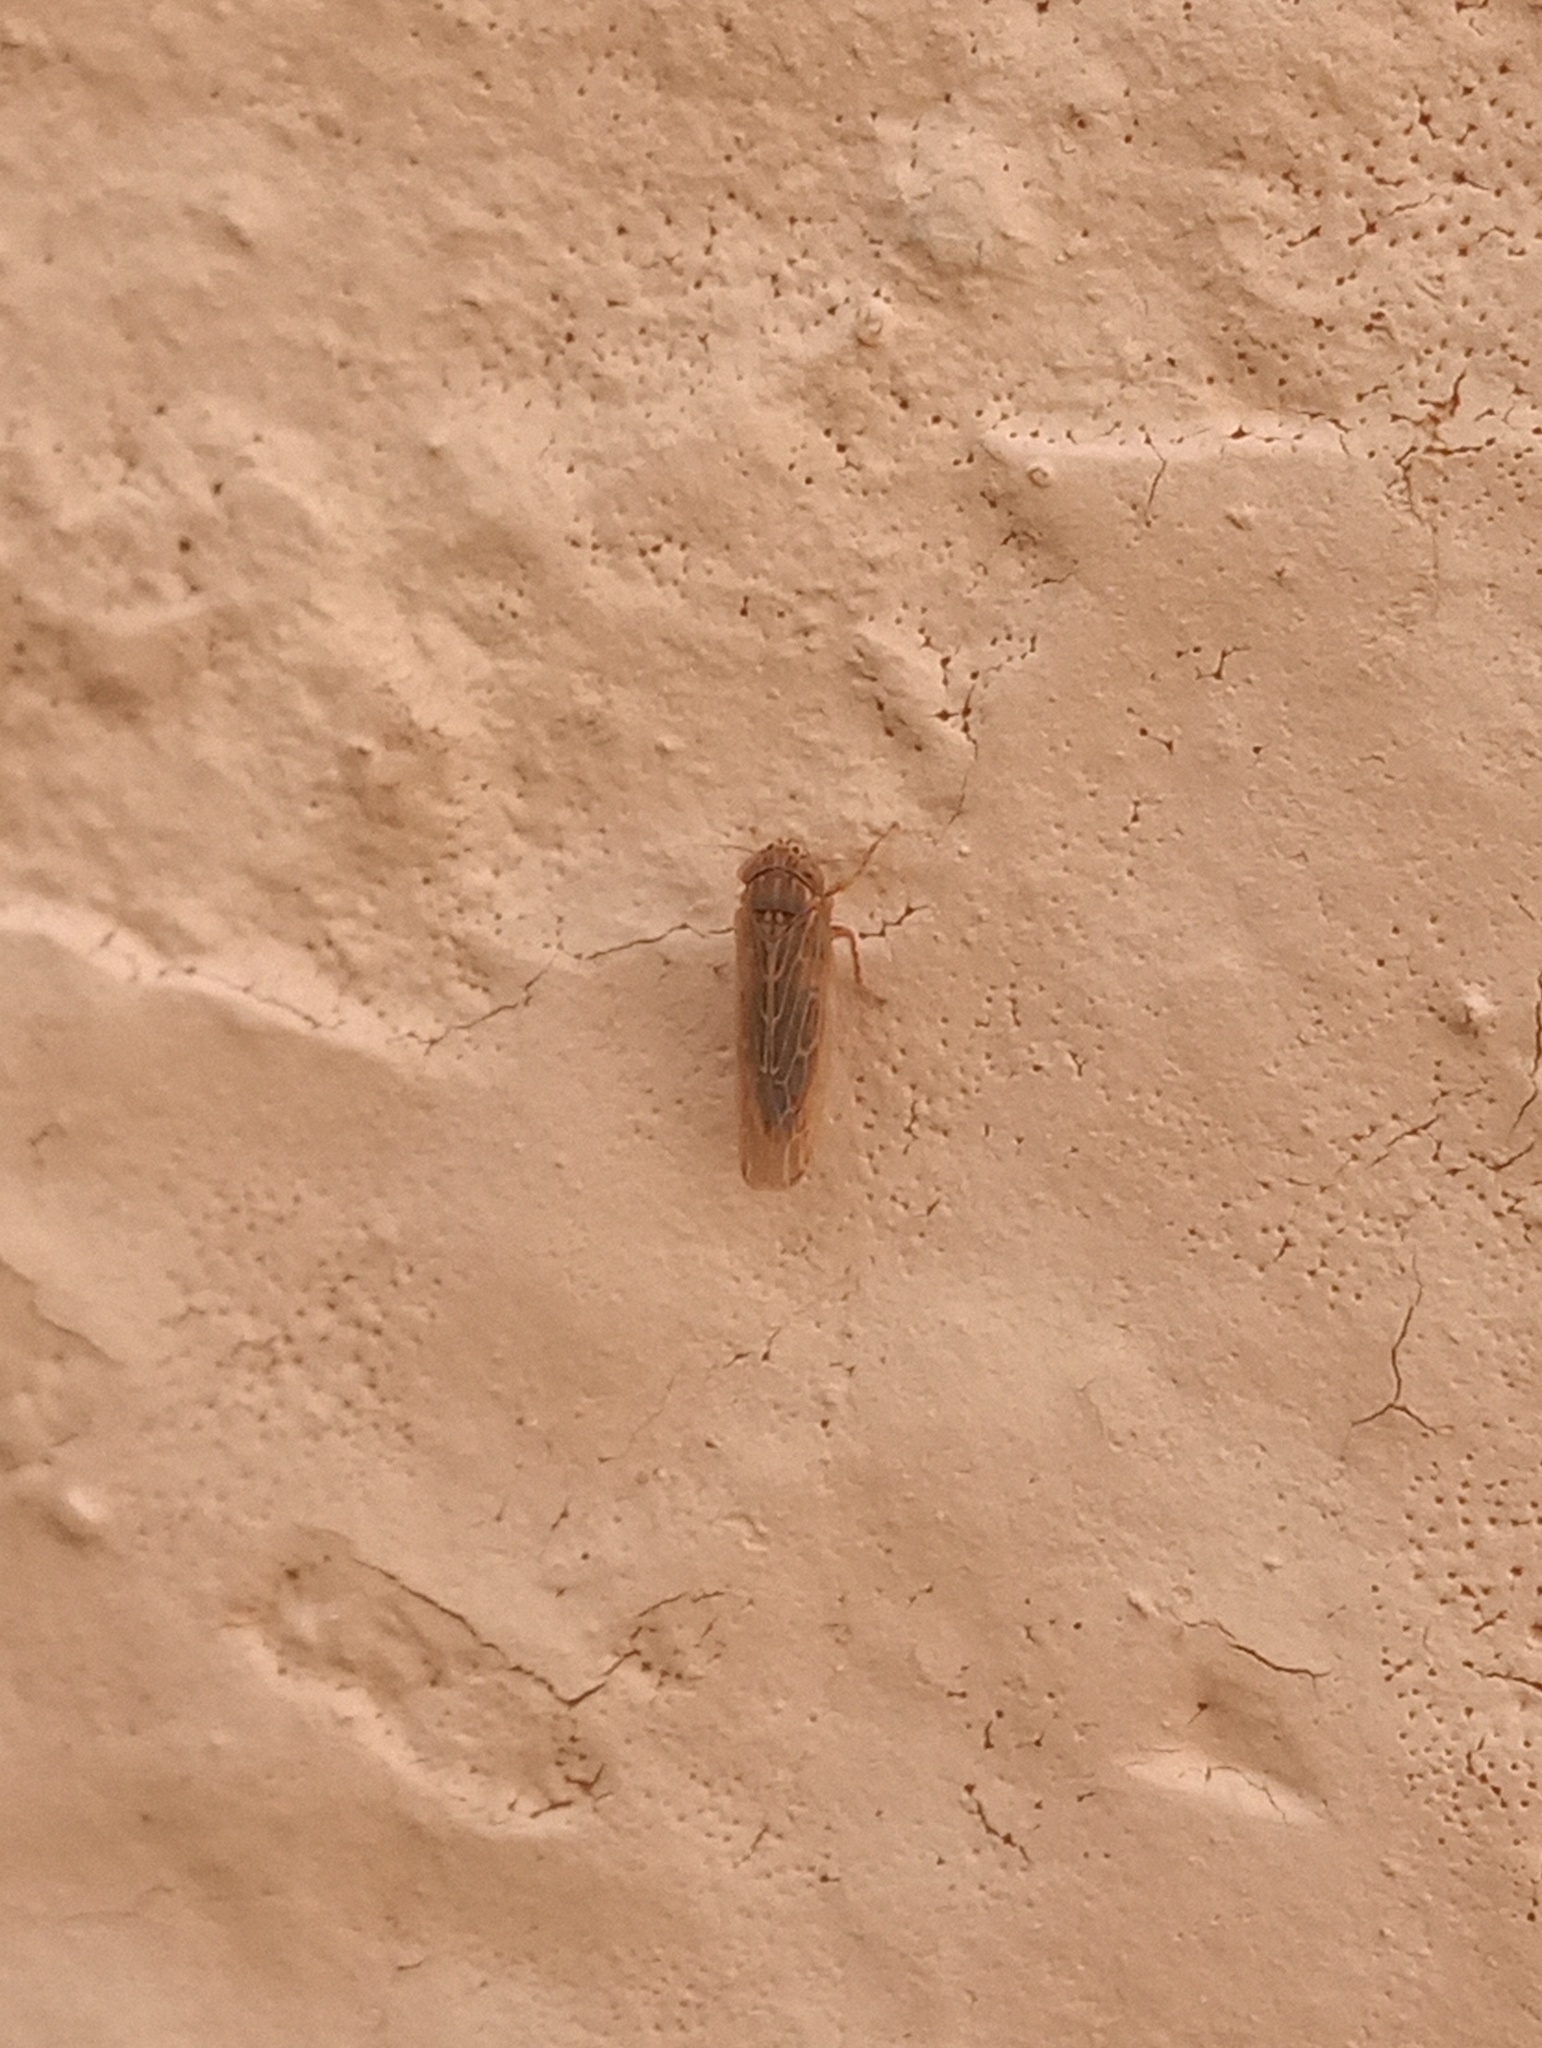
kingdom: Animalia
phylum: Arthropoda
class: Insecta
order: Hemiptera
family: Cicadellidae
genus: Graminella
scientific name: Graminella sonora
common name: Lesser lawn leafhopper
